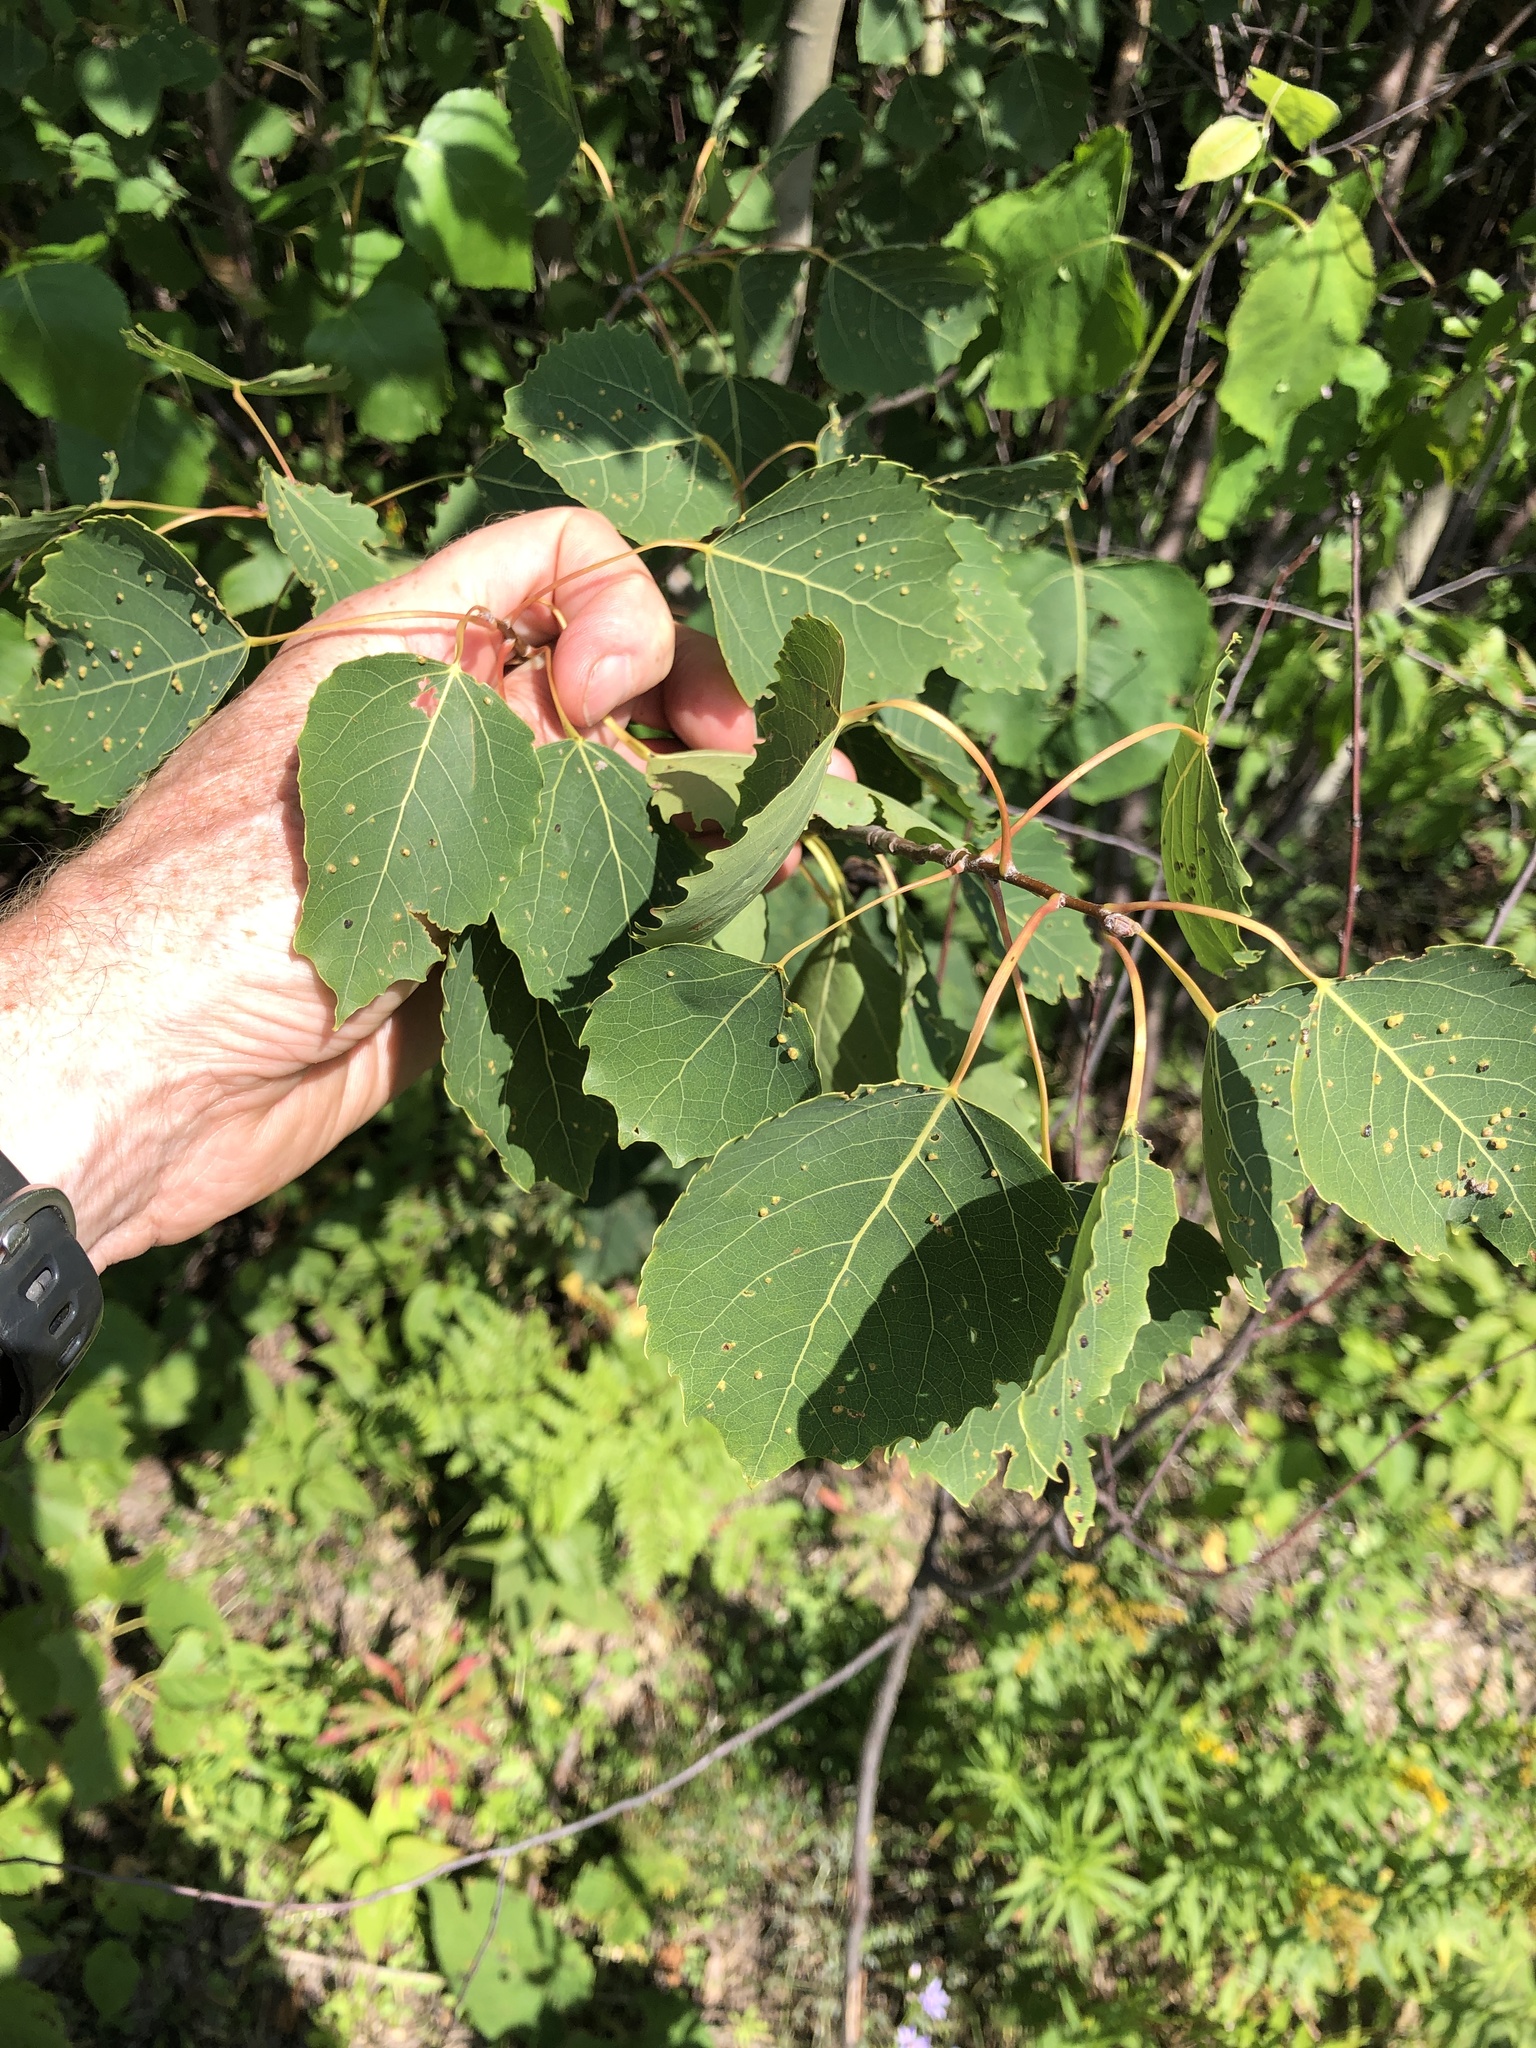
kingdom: Plantae
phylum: Tracheophyta
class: Magnoliopsida
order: Malpighiales
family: Salicaceae
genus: Populus
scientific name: Populus grandidentata
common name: Bigtooth aspen
